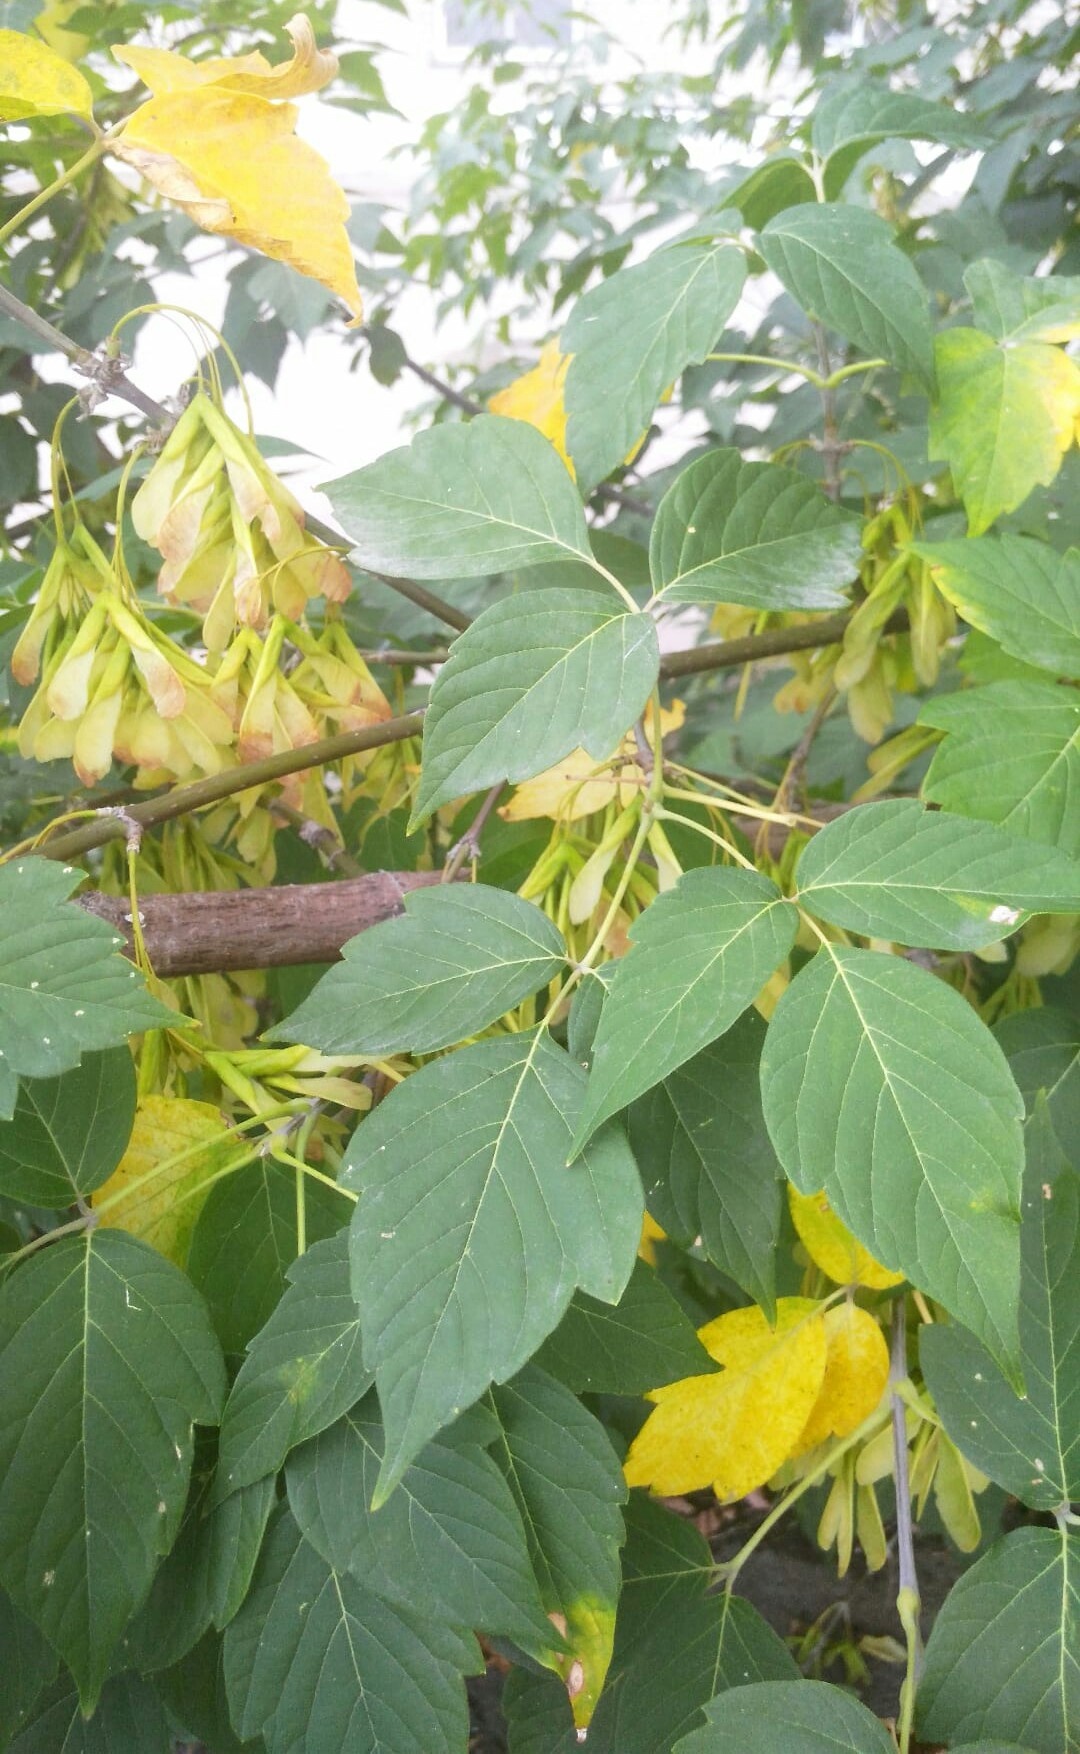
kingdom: Plantae
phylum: Tracheophyta
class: Magnoliopsida
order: Sapindales
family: Sapindaceae
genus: Acer
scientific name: Acer negundo
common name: Ashleaf maple
